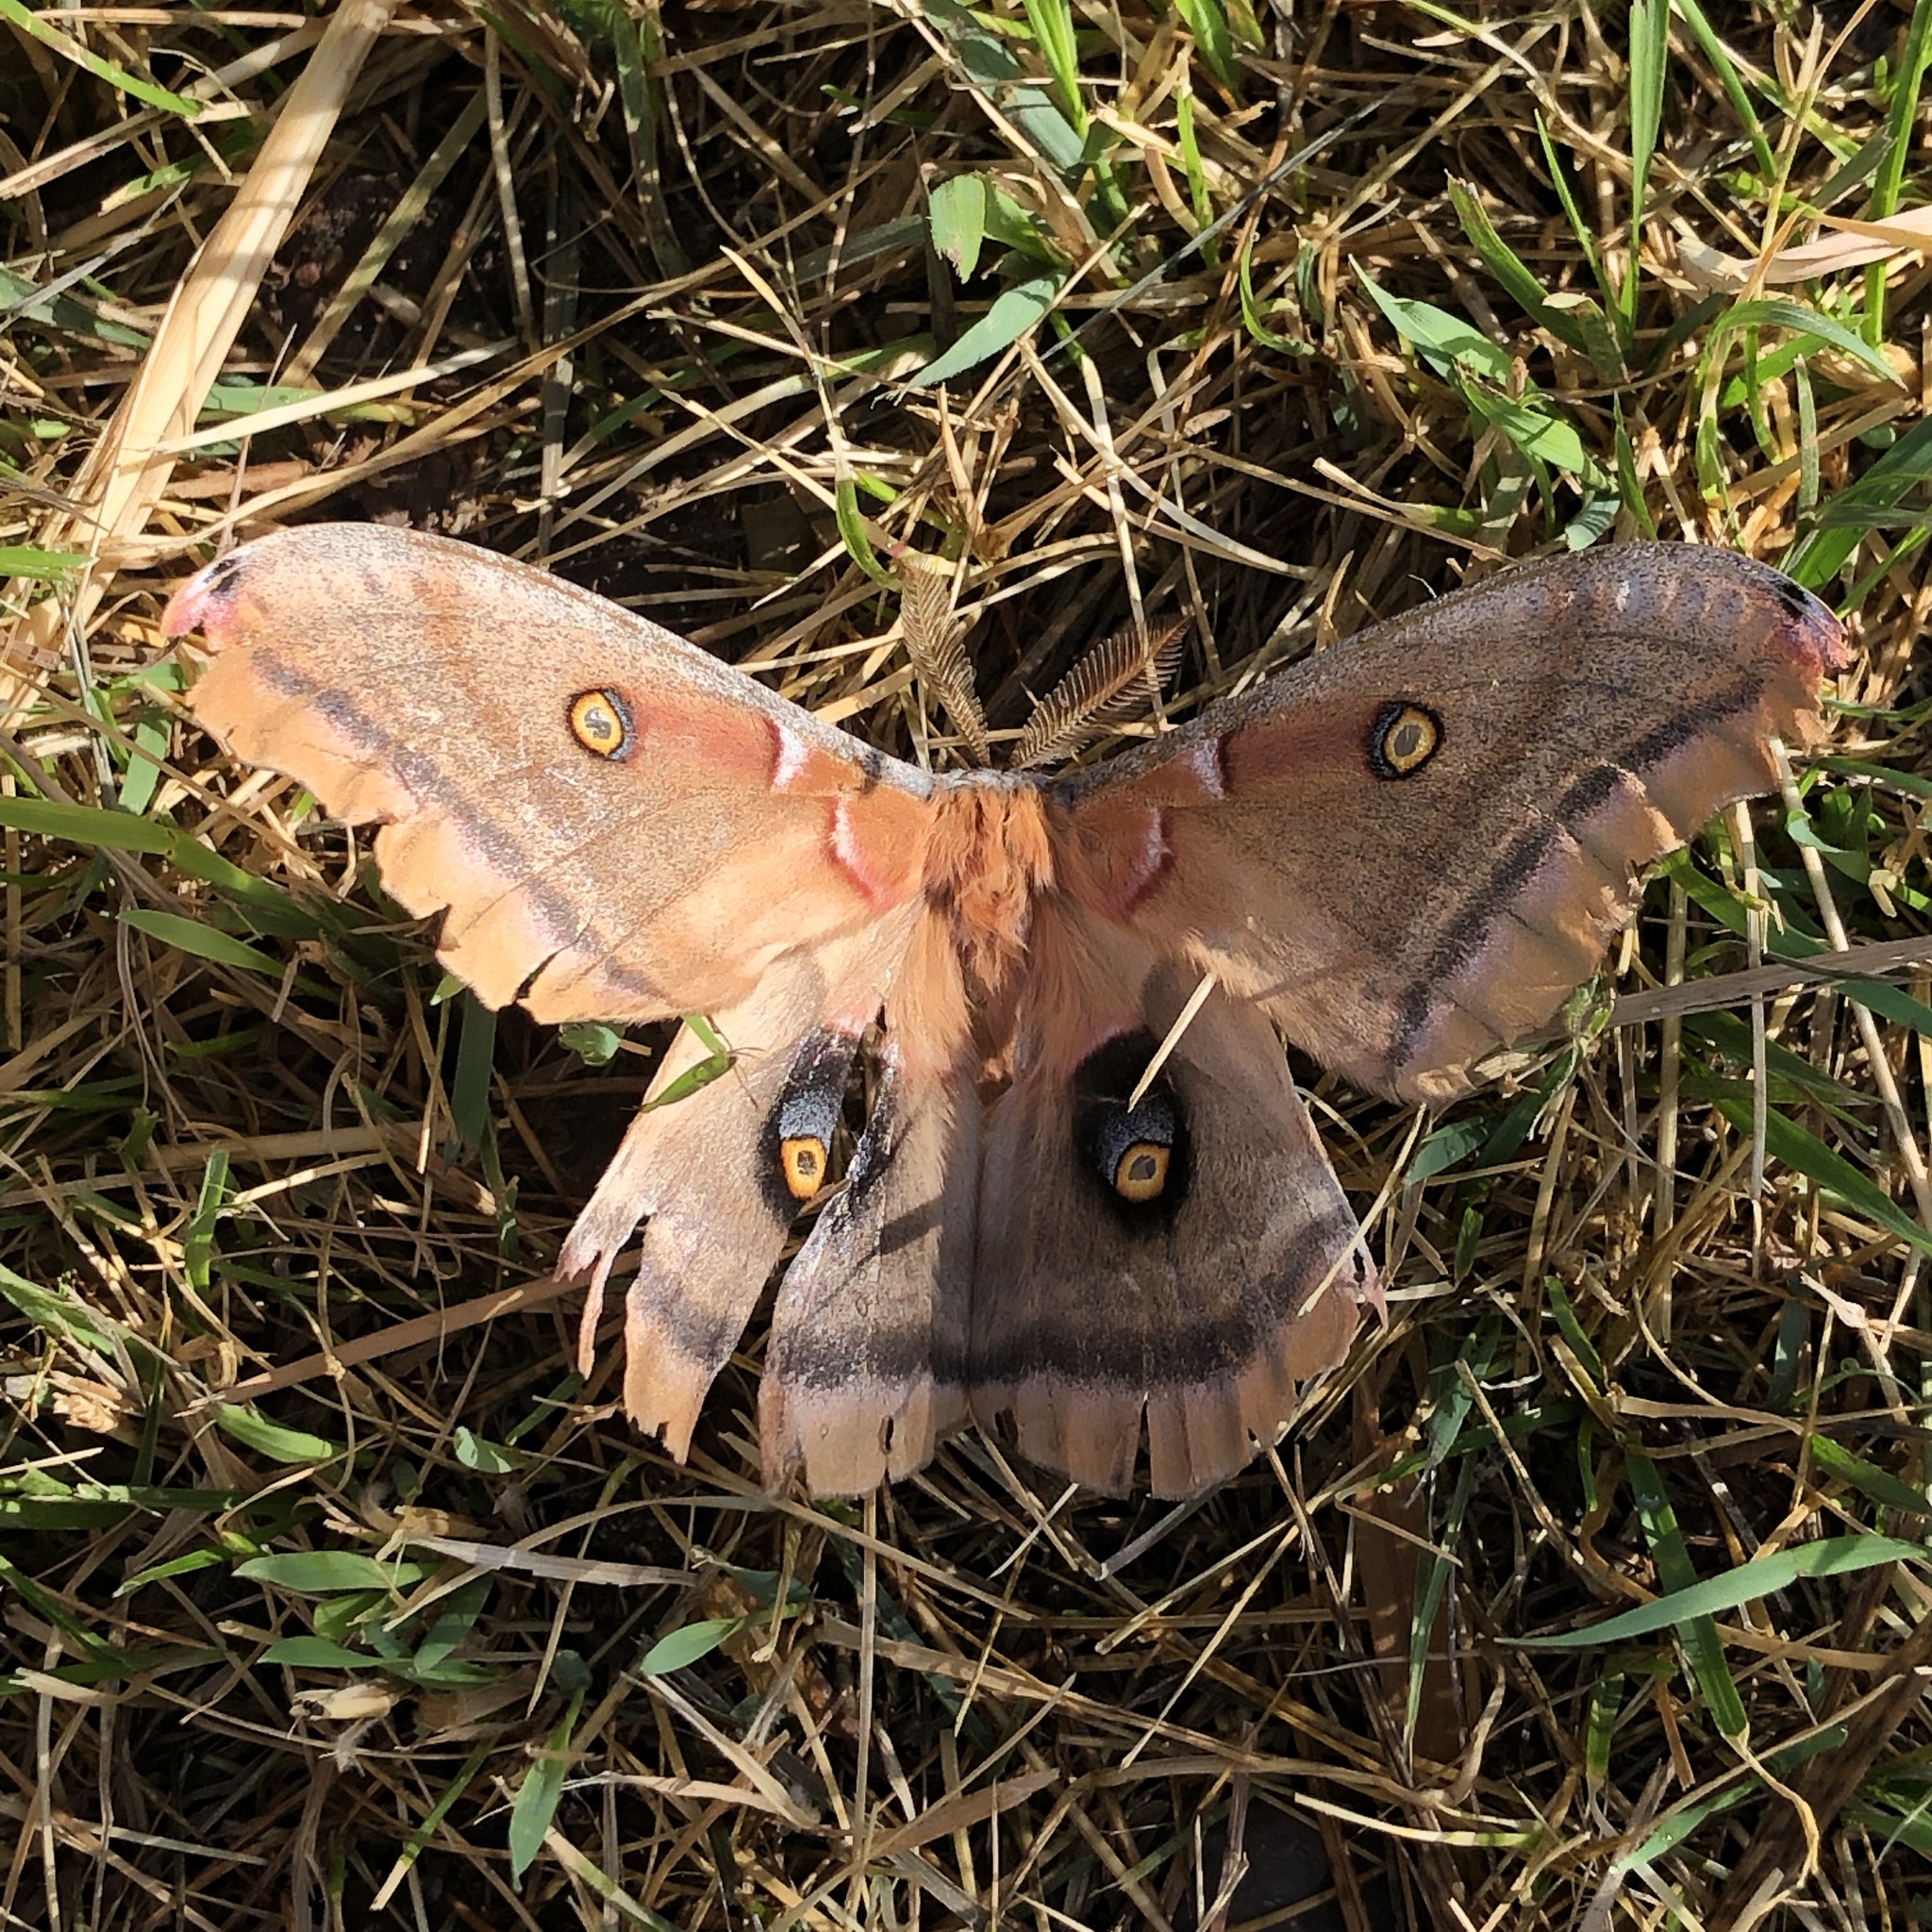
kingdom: Animalia
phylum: Arthropoda
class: Insecta
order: Lepidoptera
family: Saturniidae
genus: Antheraea
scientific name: Antheraea polyphemus
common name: Polyphemus moth
